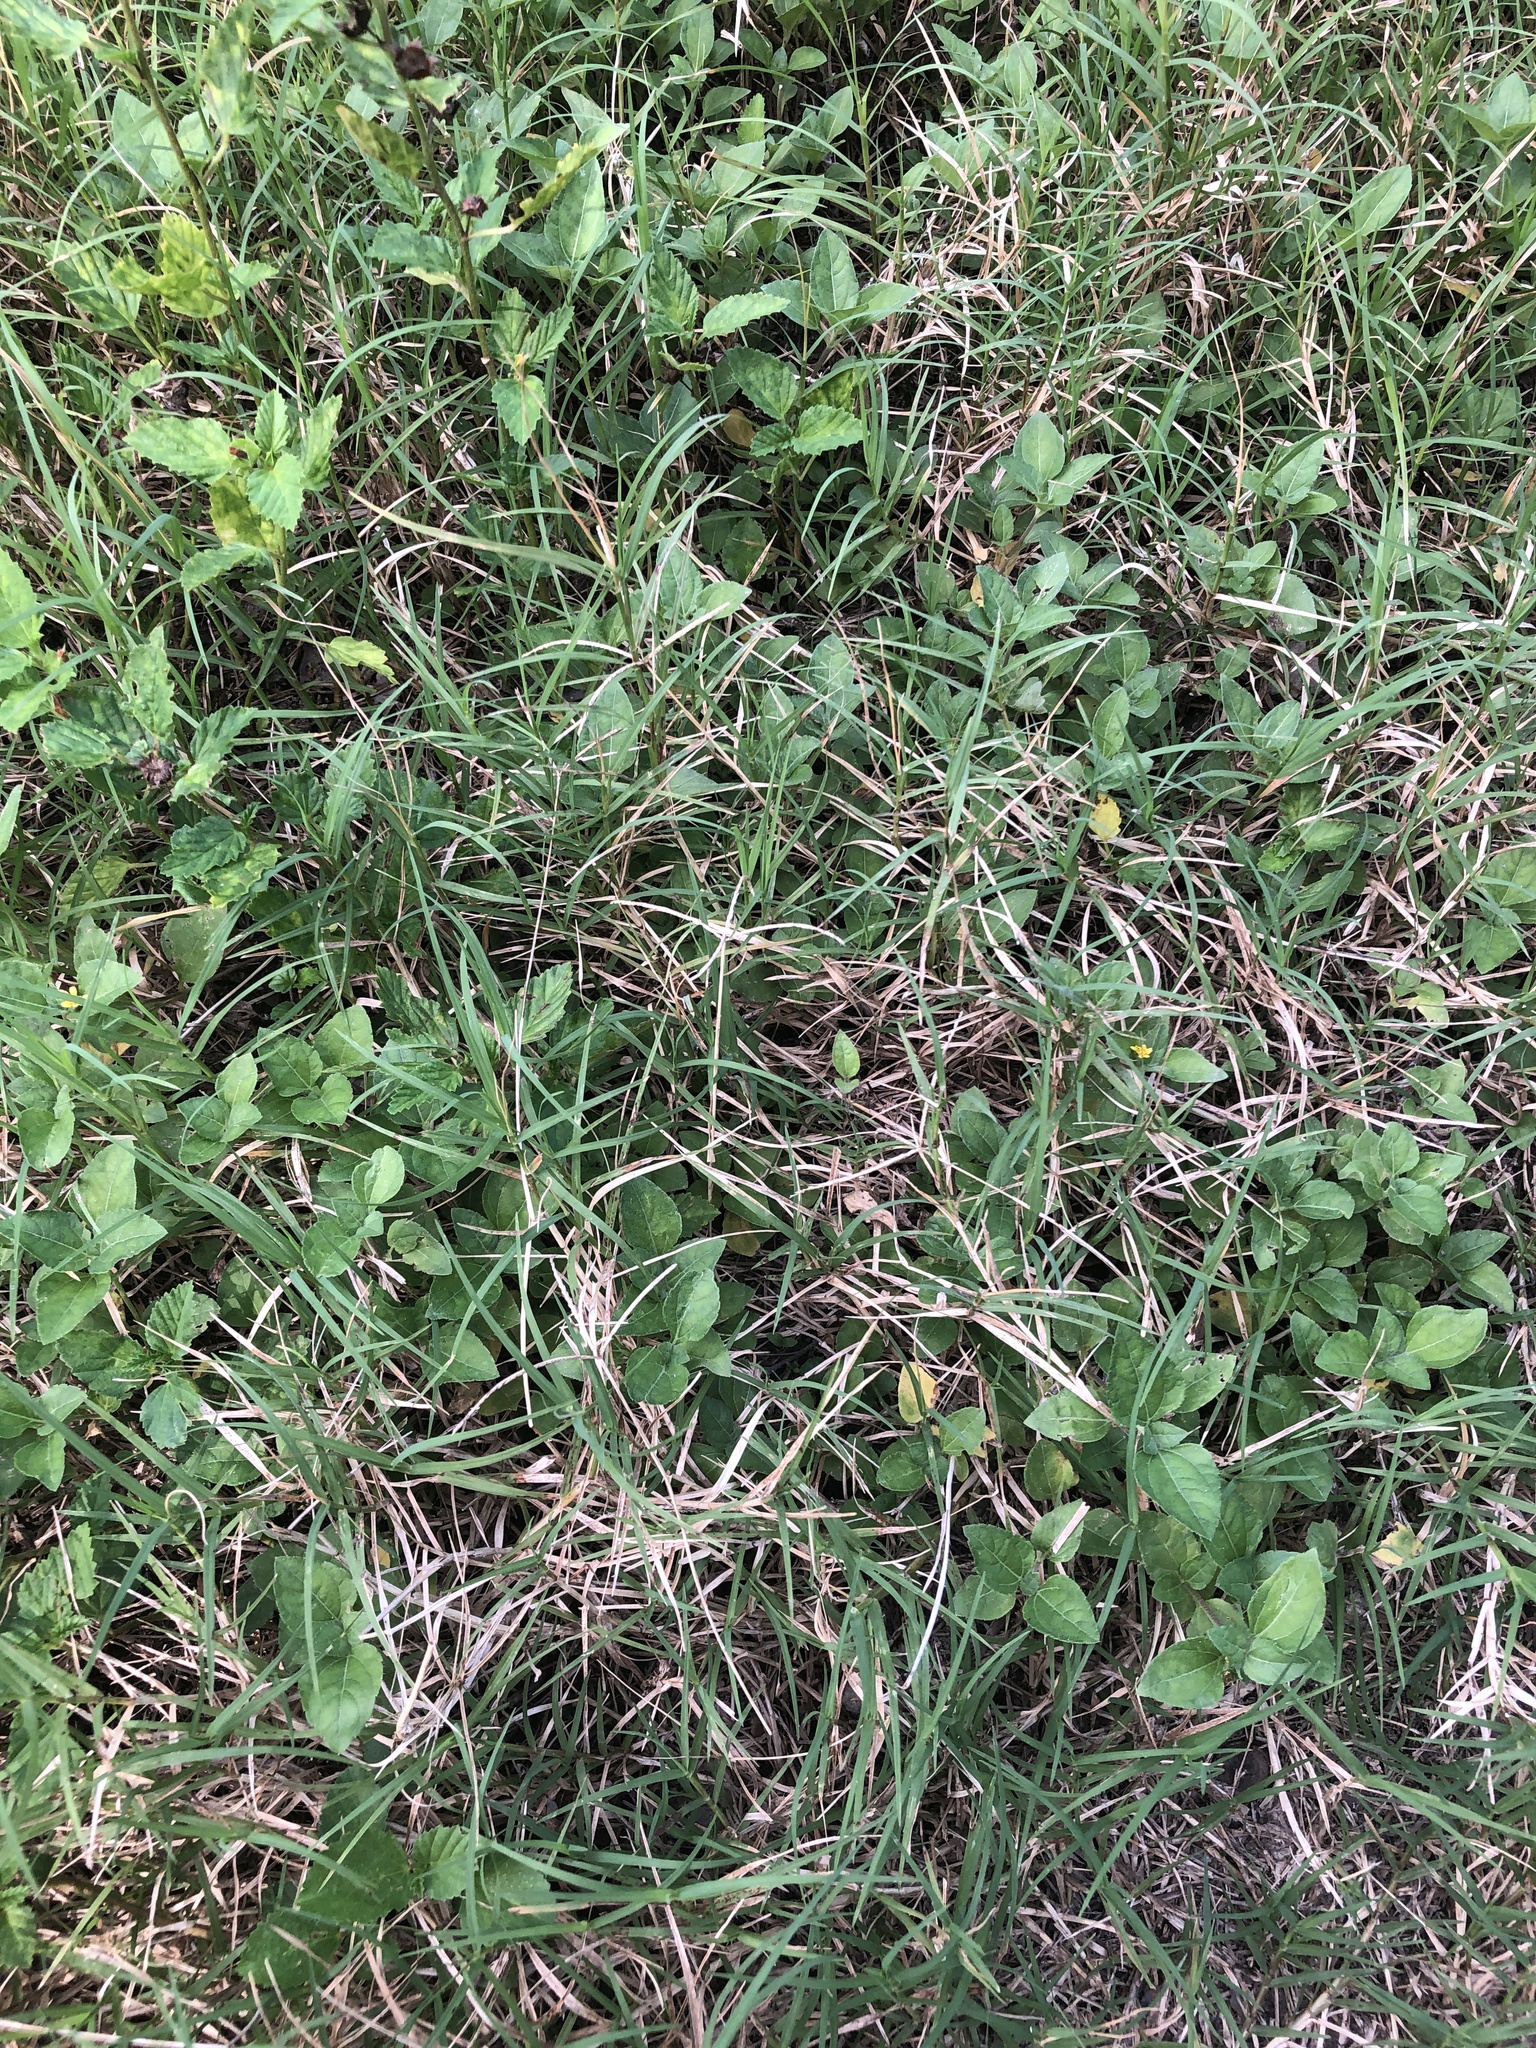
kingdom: Plantae
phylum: Tracheophyta
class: Liliopsida
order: Poales
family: Poaceae
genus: Cynodon
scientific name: Cynodon dactylon
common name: Bermuda grass
